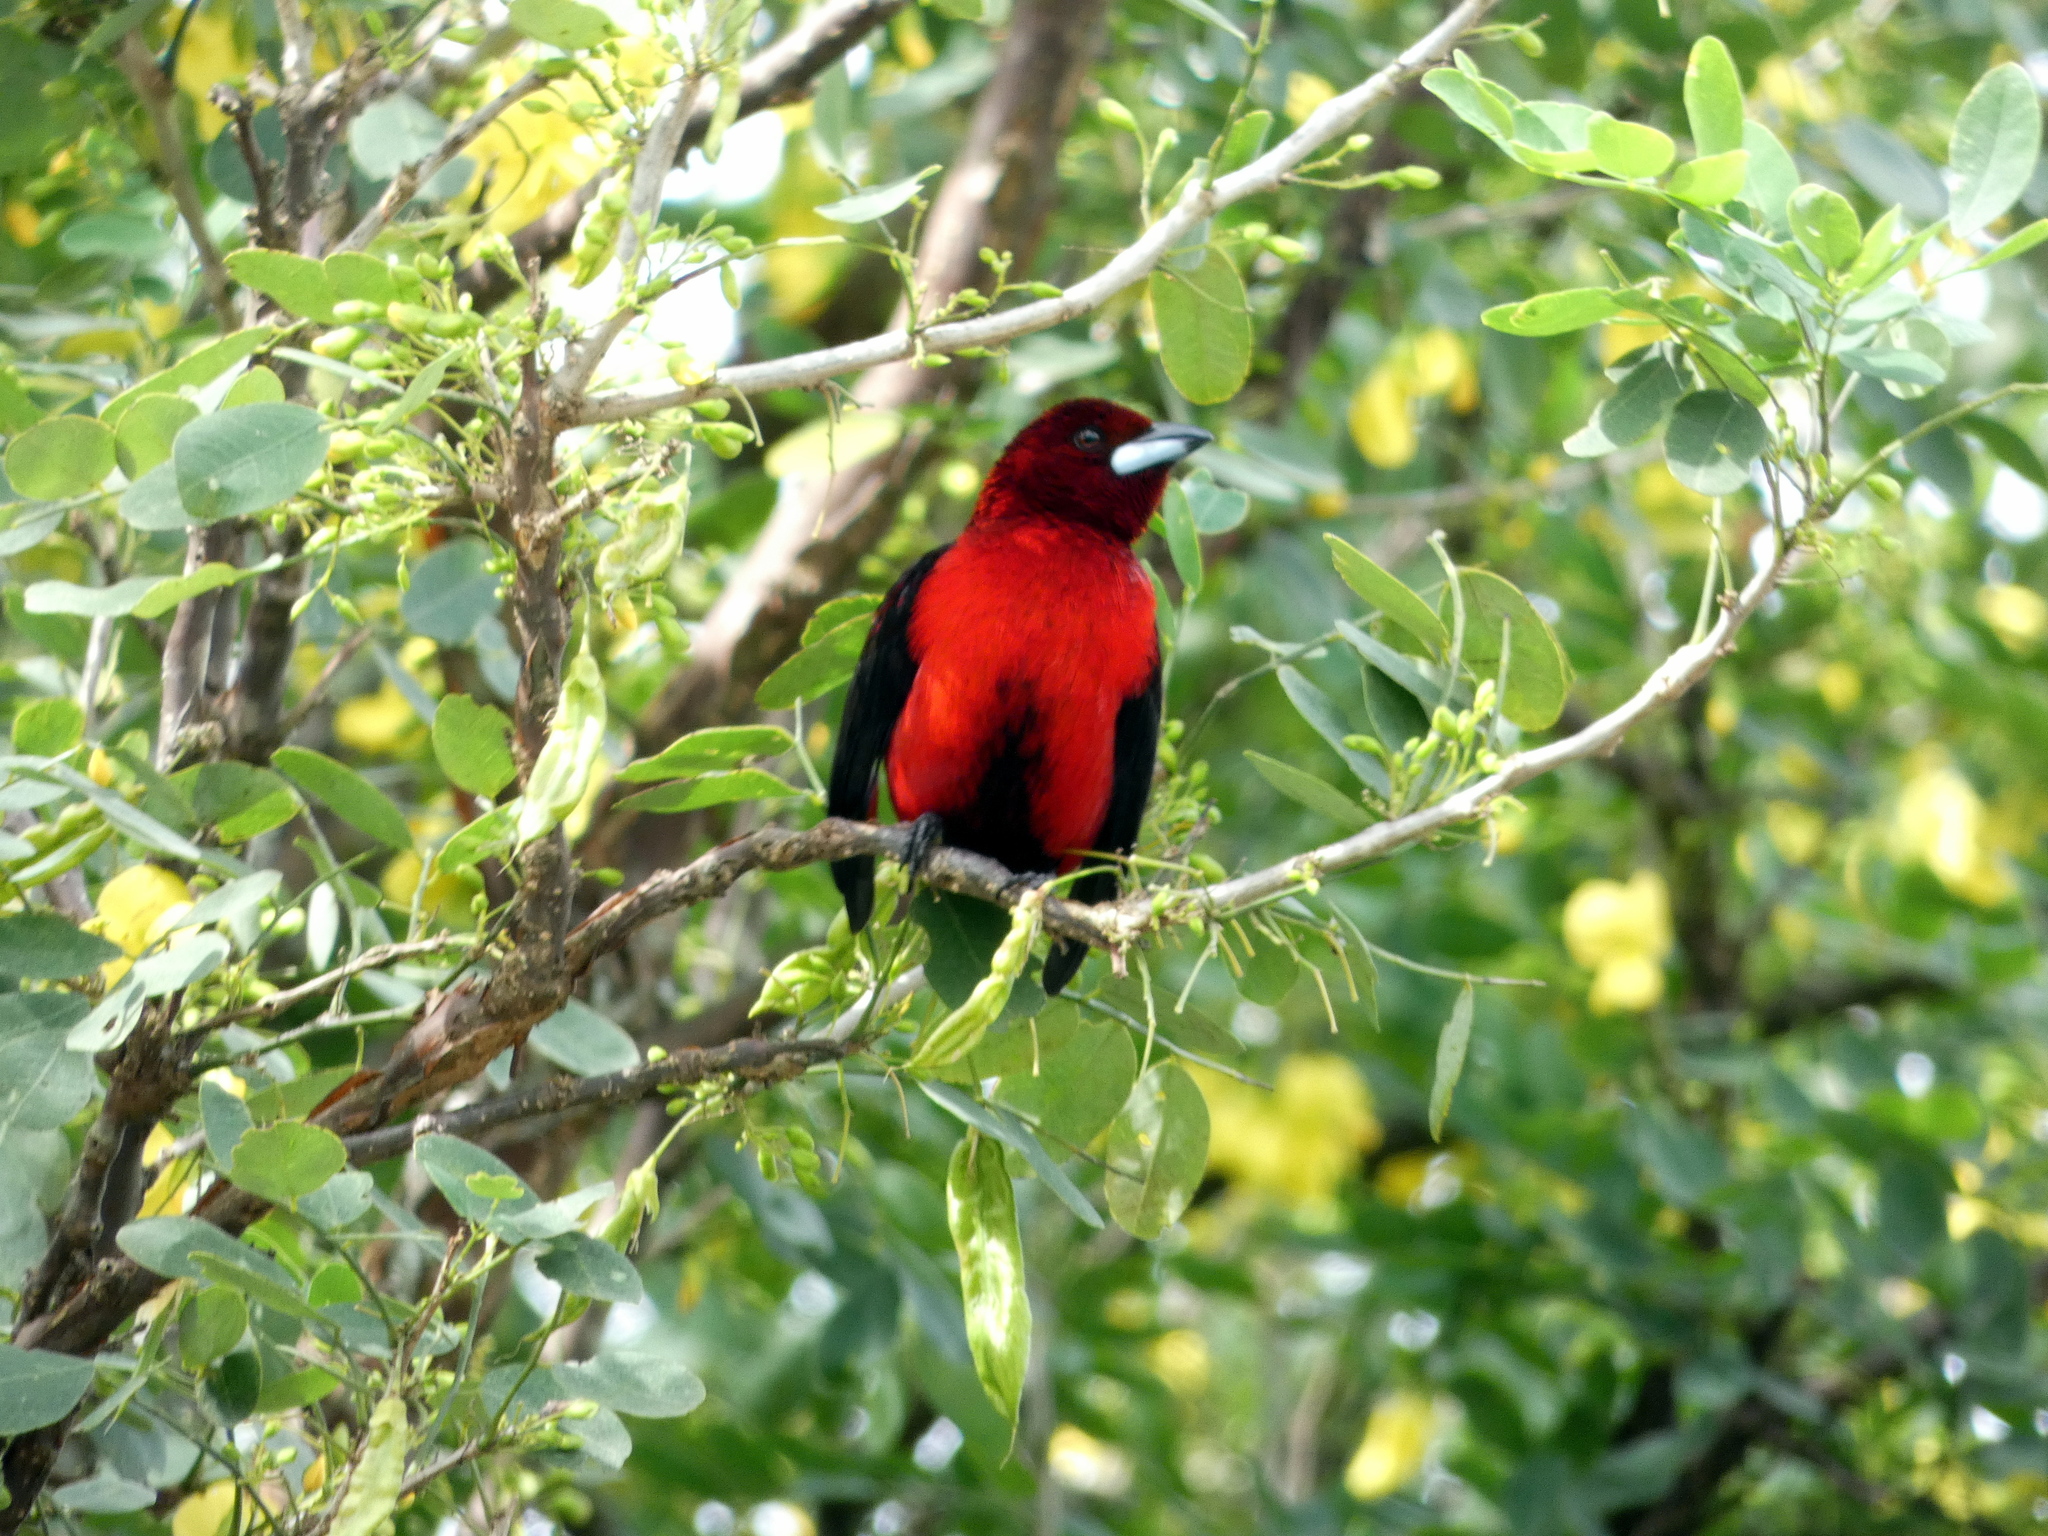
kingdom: Animalia
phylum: Chordata
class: Aves
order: Passeriformes
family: Thraupidae
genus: Ramphocelus
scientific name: Ramphocelus dimidiatus
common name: Crimson-backed tanager
